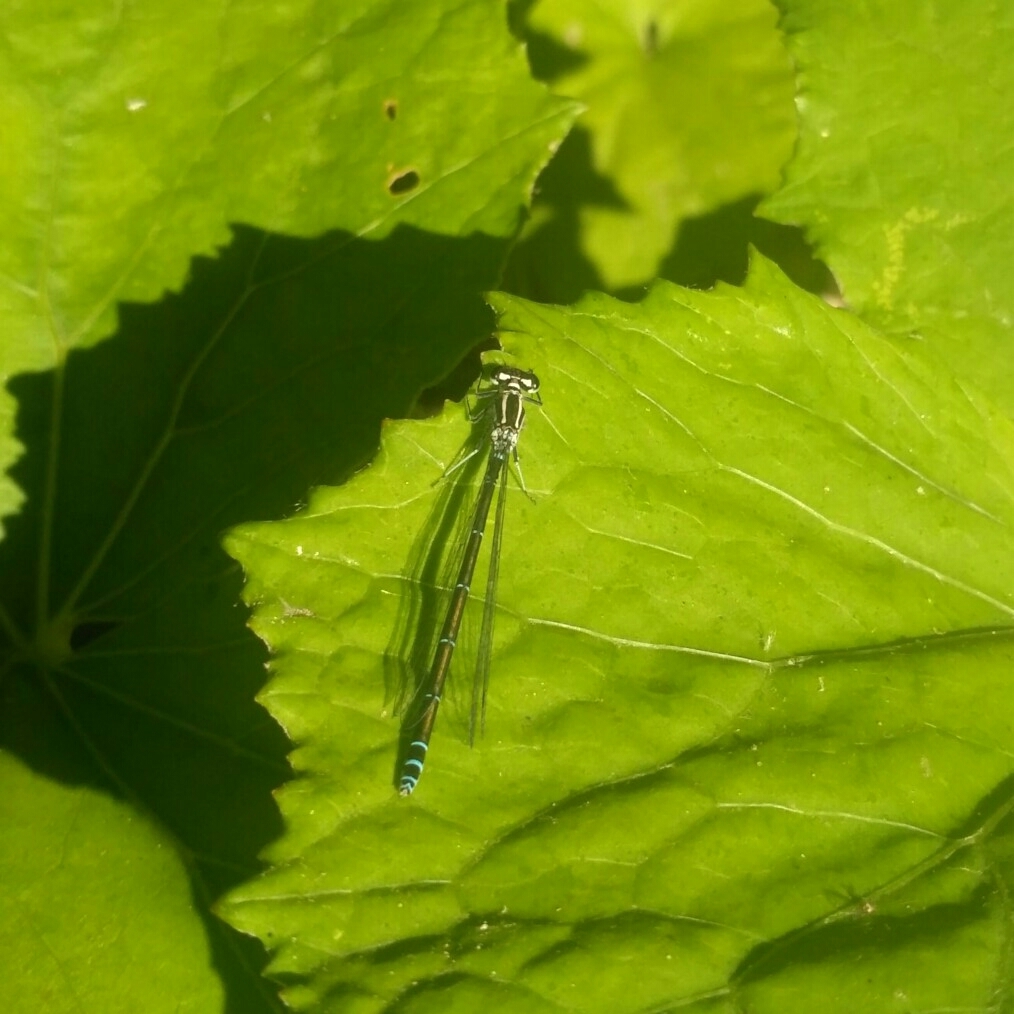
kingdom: Animalia
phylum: Arthropoda
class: Insecta
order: Odonata
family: Coenagrionidae
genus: Coenagrion
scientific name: Coenagrion puella
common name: Azure damselfly
